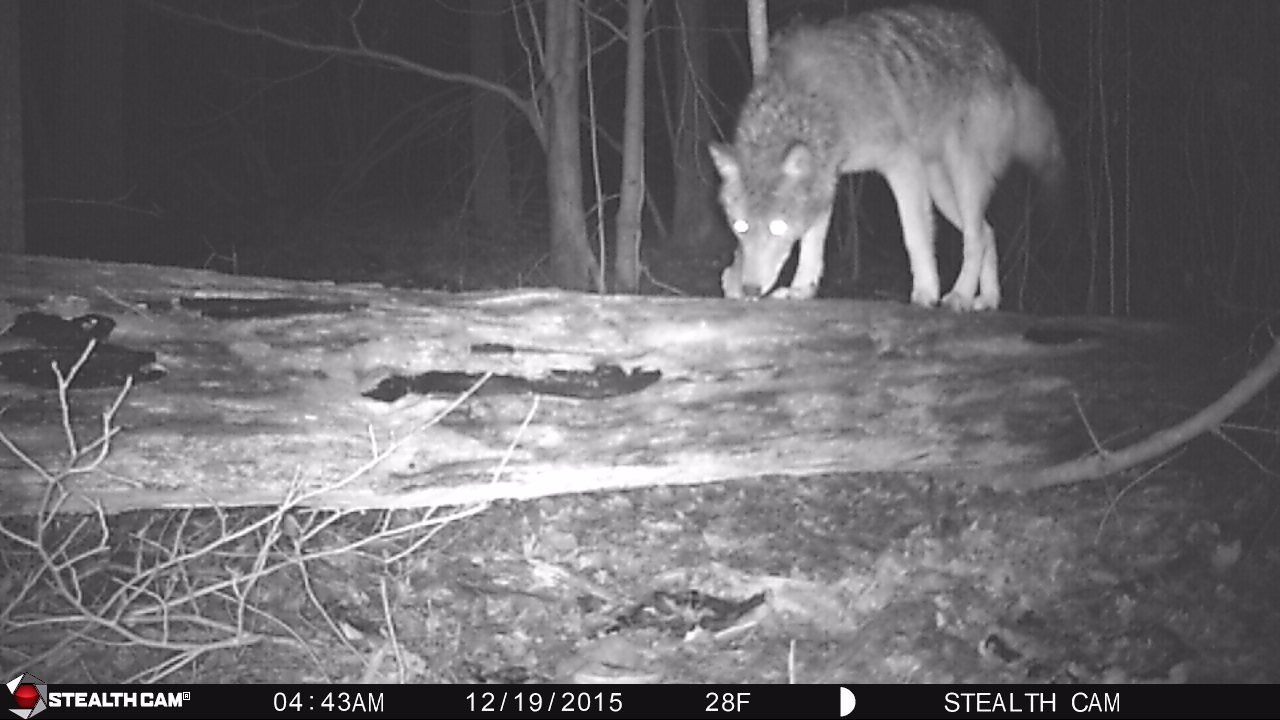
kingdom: Animalia
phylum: Chordata
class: Mammalia
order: Carnivora
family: Canidae
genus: Canis
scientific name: Canis latrans
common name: Coyote
